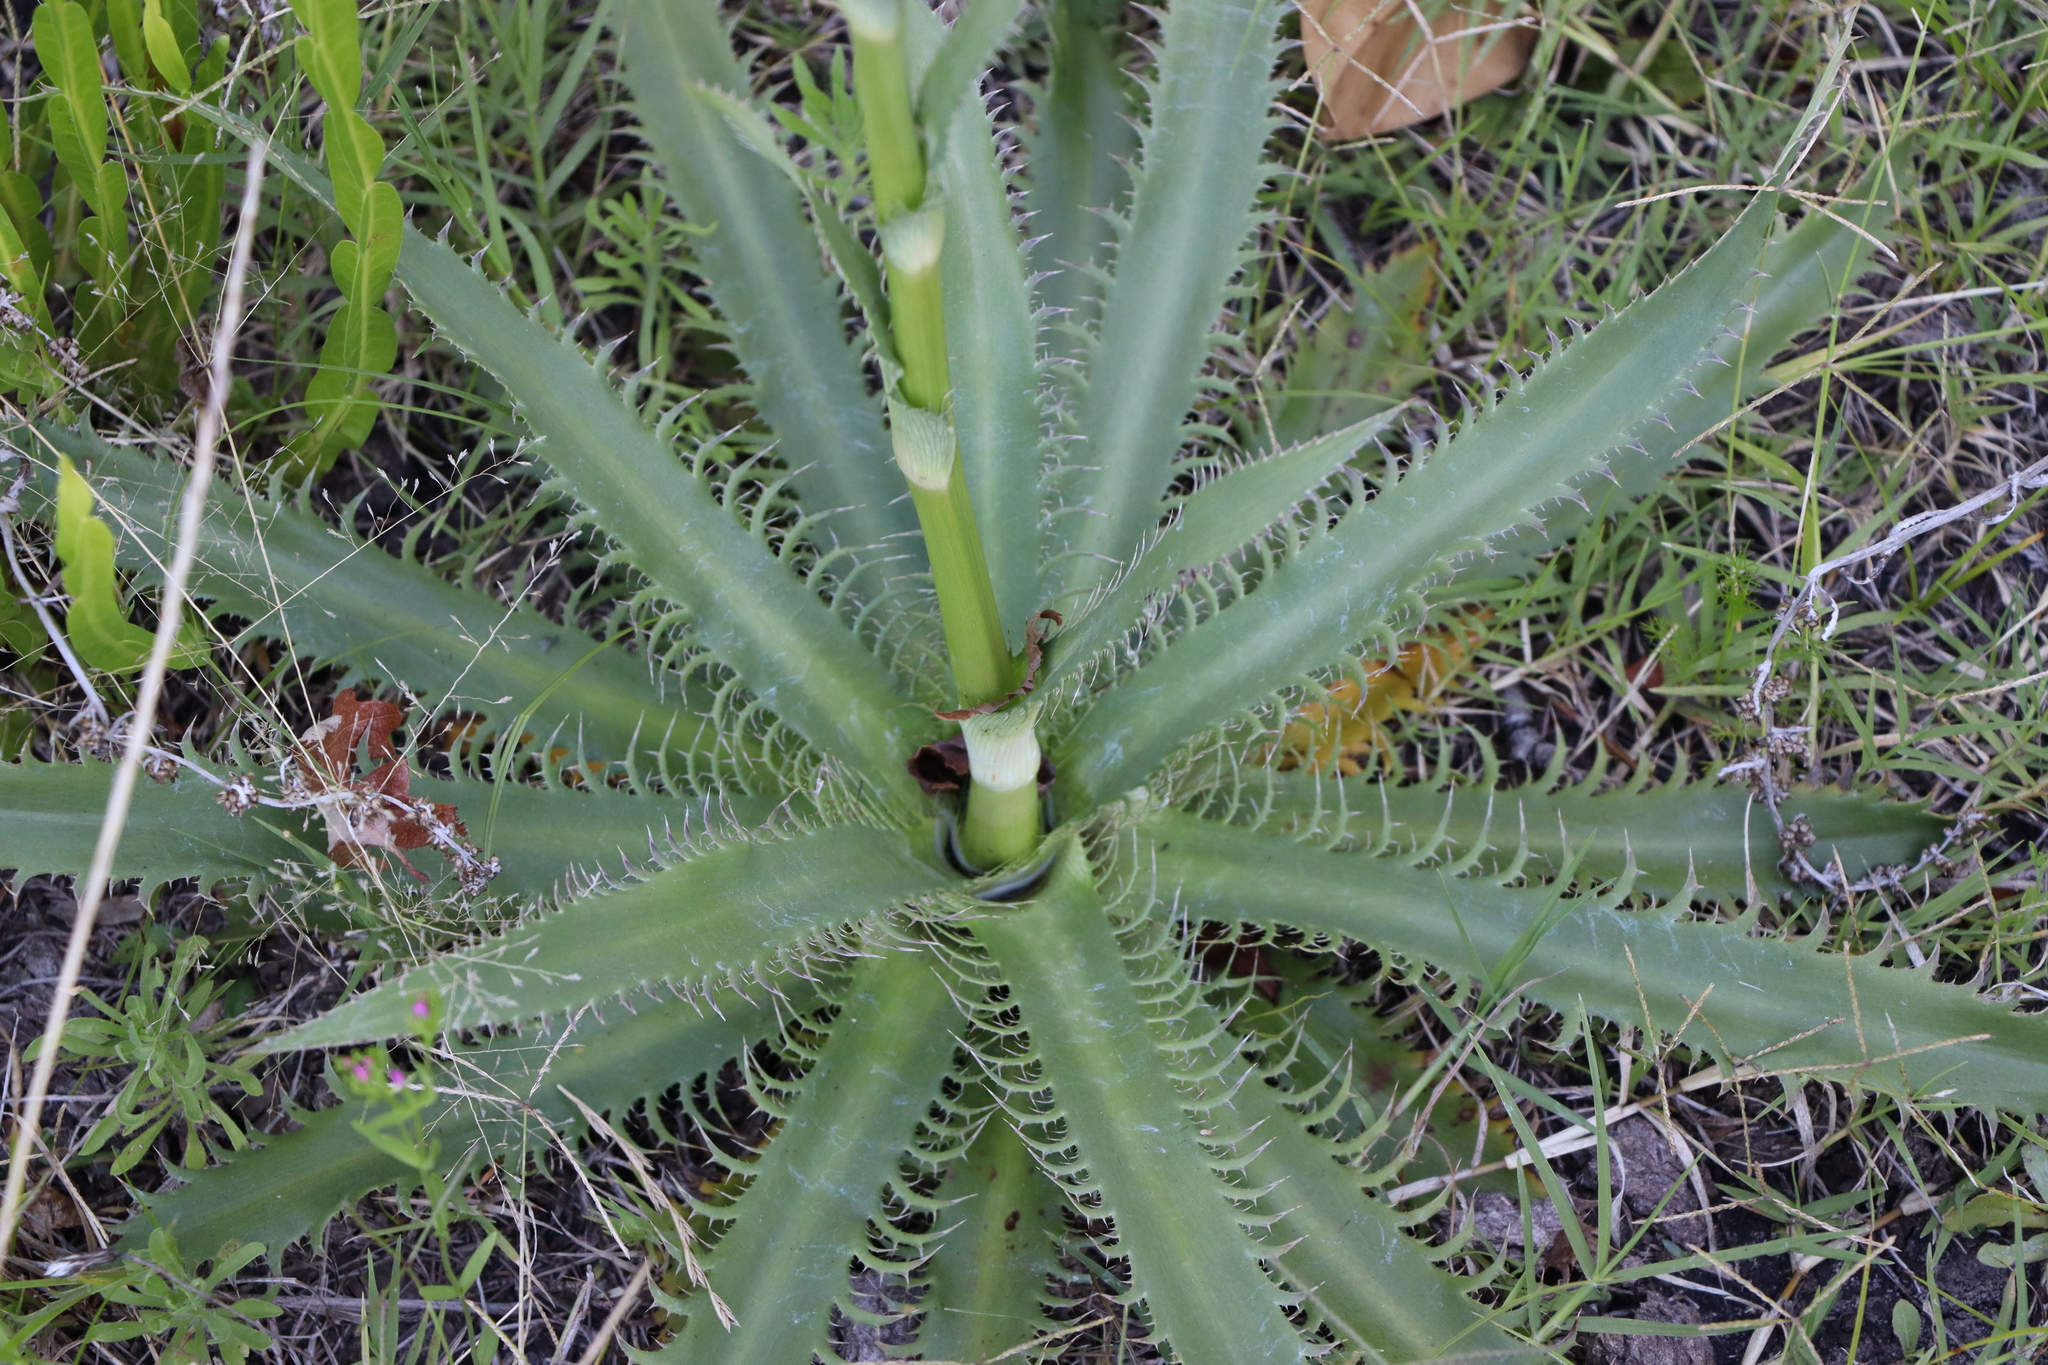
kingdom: Plantae
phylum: Tracheophyta
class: Magnoliopsida
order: Apiales
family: Apiaceae
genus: Eryngium
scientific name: Eryngium serra
